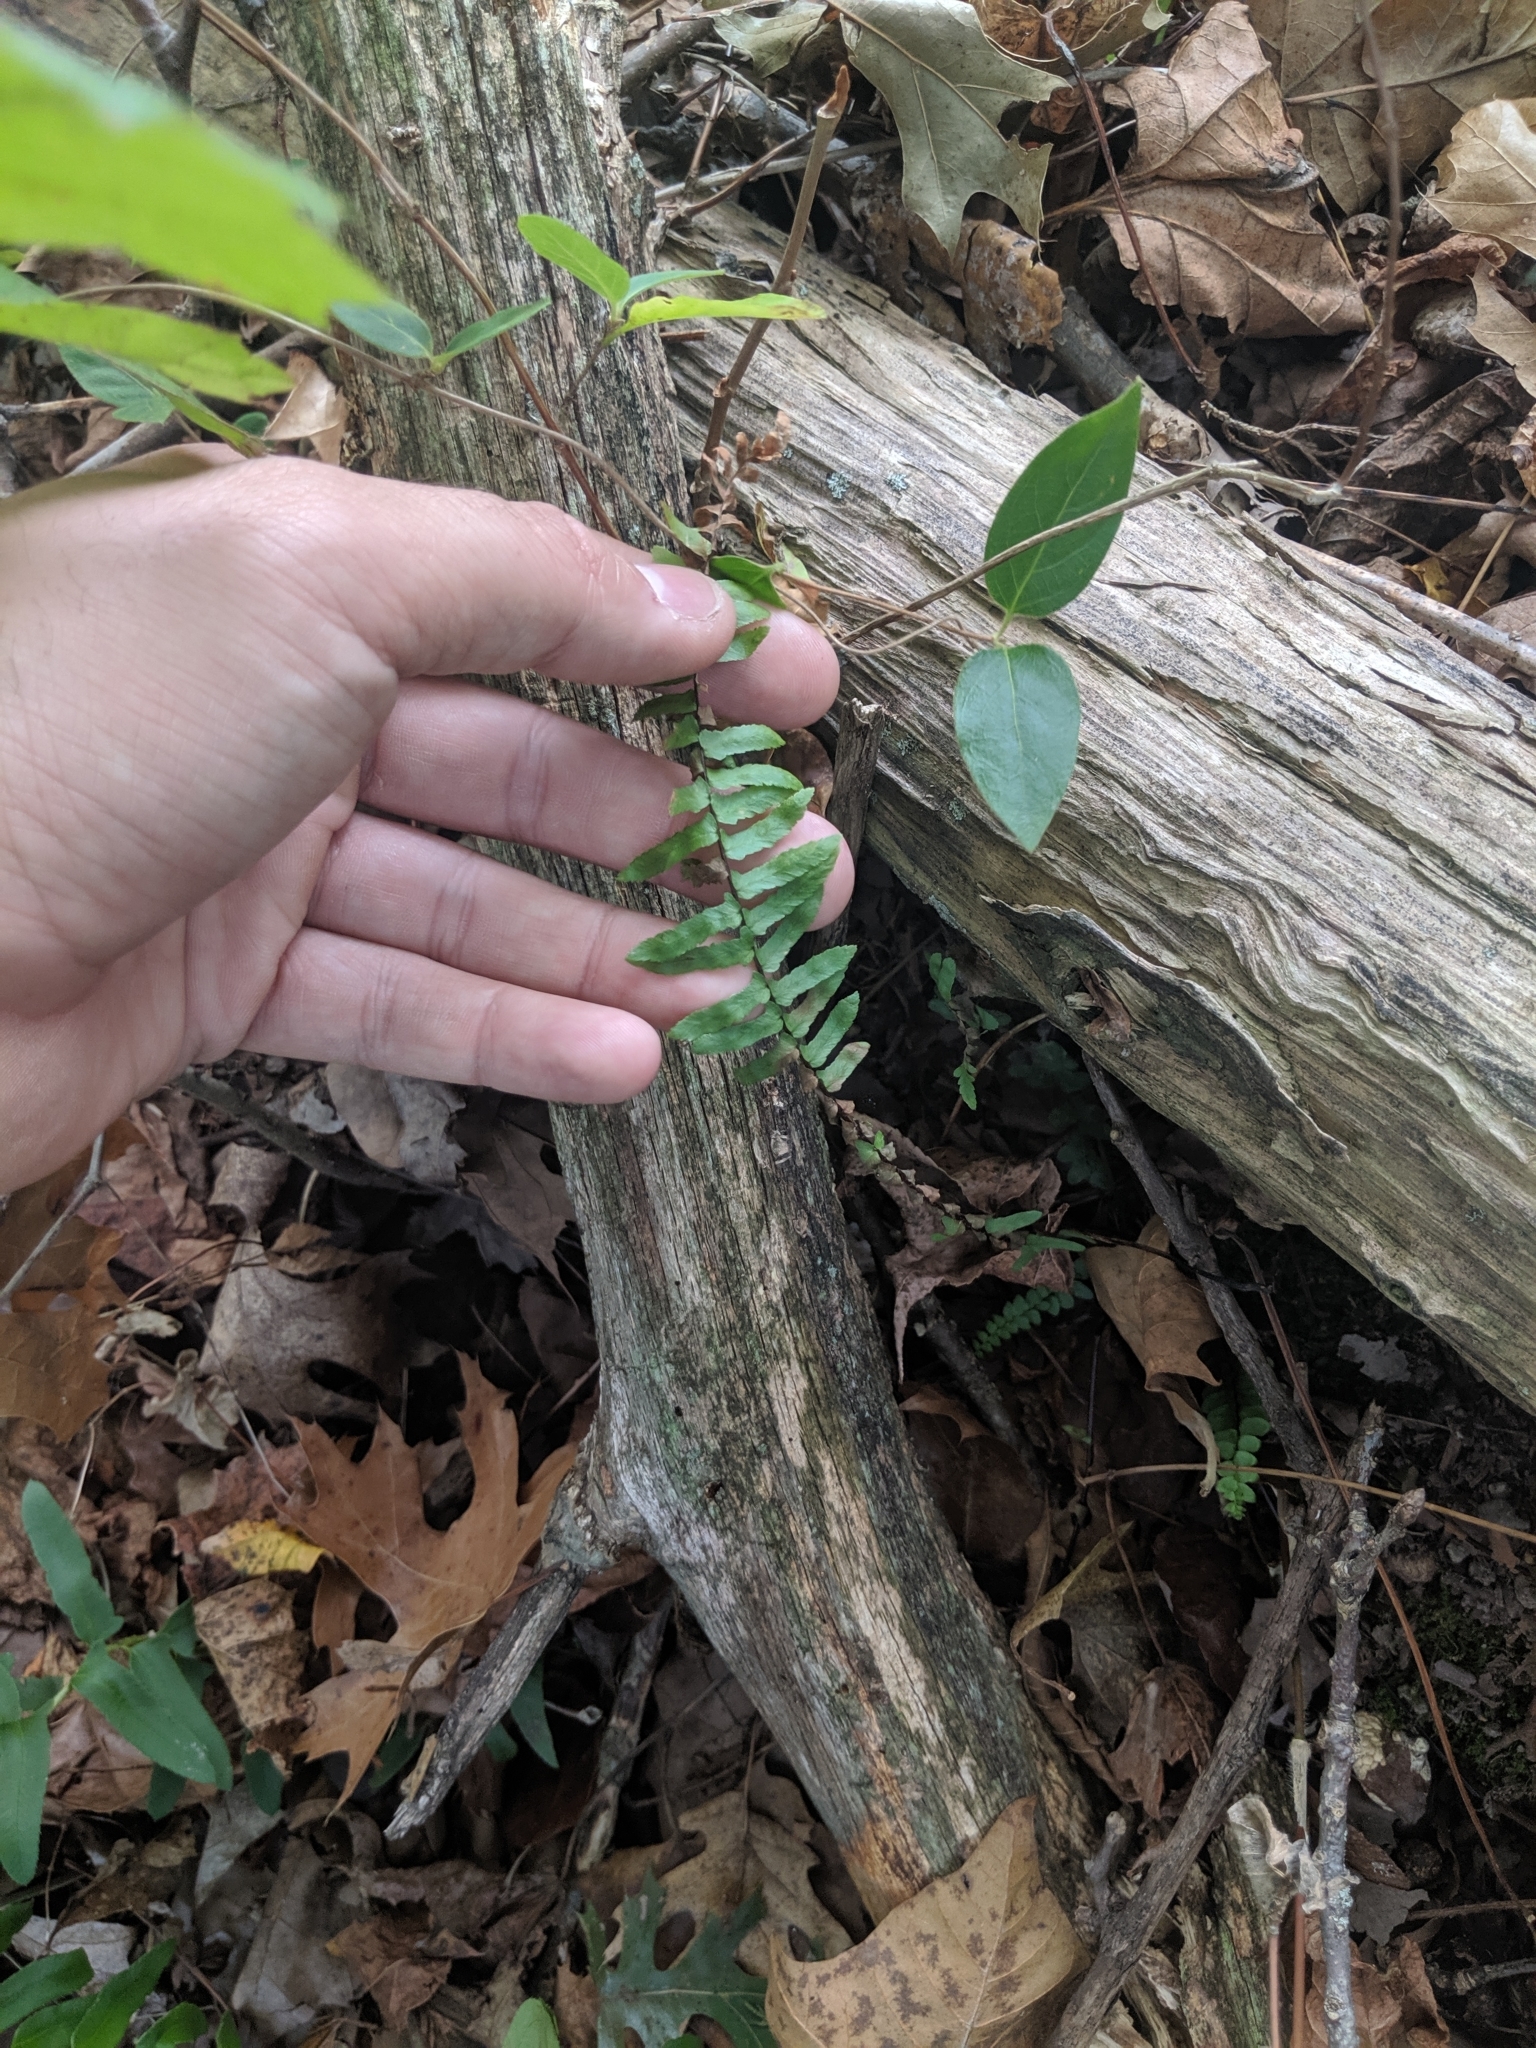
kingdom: Plantae
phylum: Tracheophyta
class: Polypodiopsida
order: Polypodiales
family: Aspleniaceae
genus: Asplenium
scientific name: Asplenium platyneuron
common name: Ebony spleenwort
